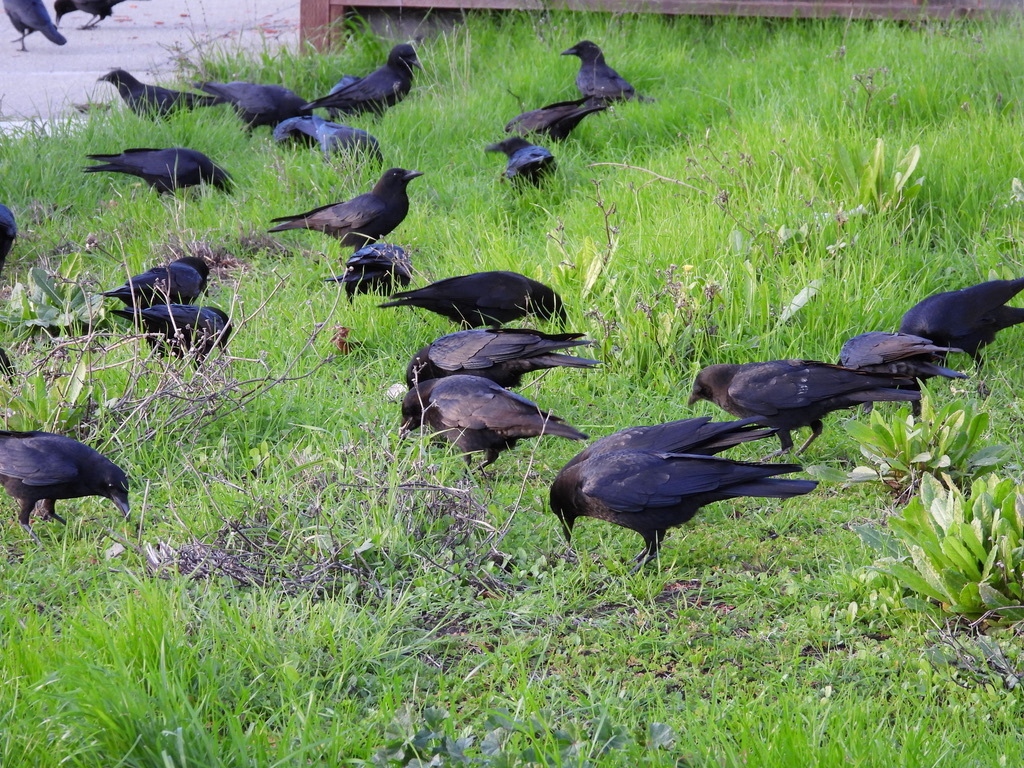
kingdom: Animalia
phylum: Chordata
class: Aves
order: Passeriformes
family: Corvidae
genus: Corvus
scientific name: Corvus brachyrhynchos
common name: American crow
